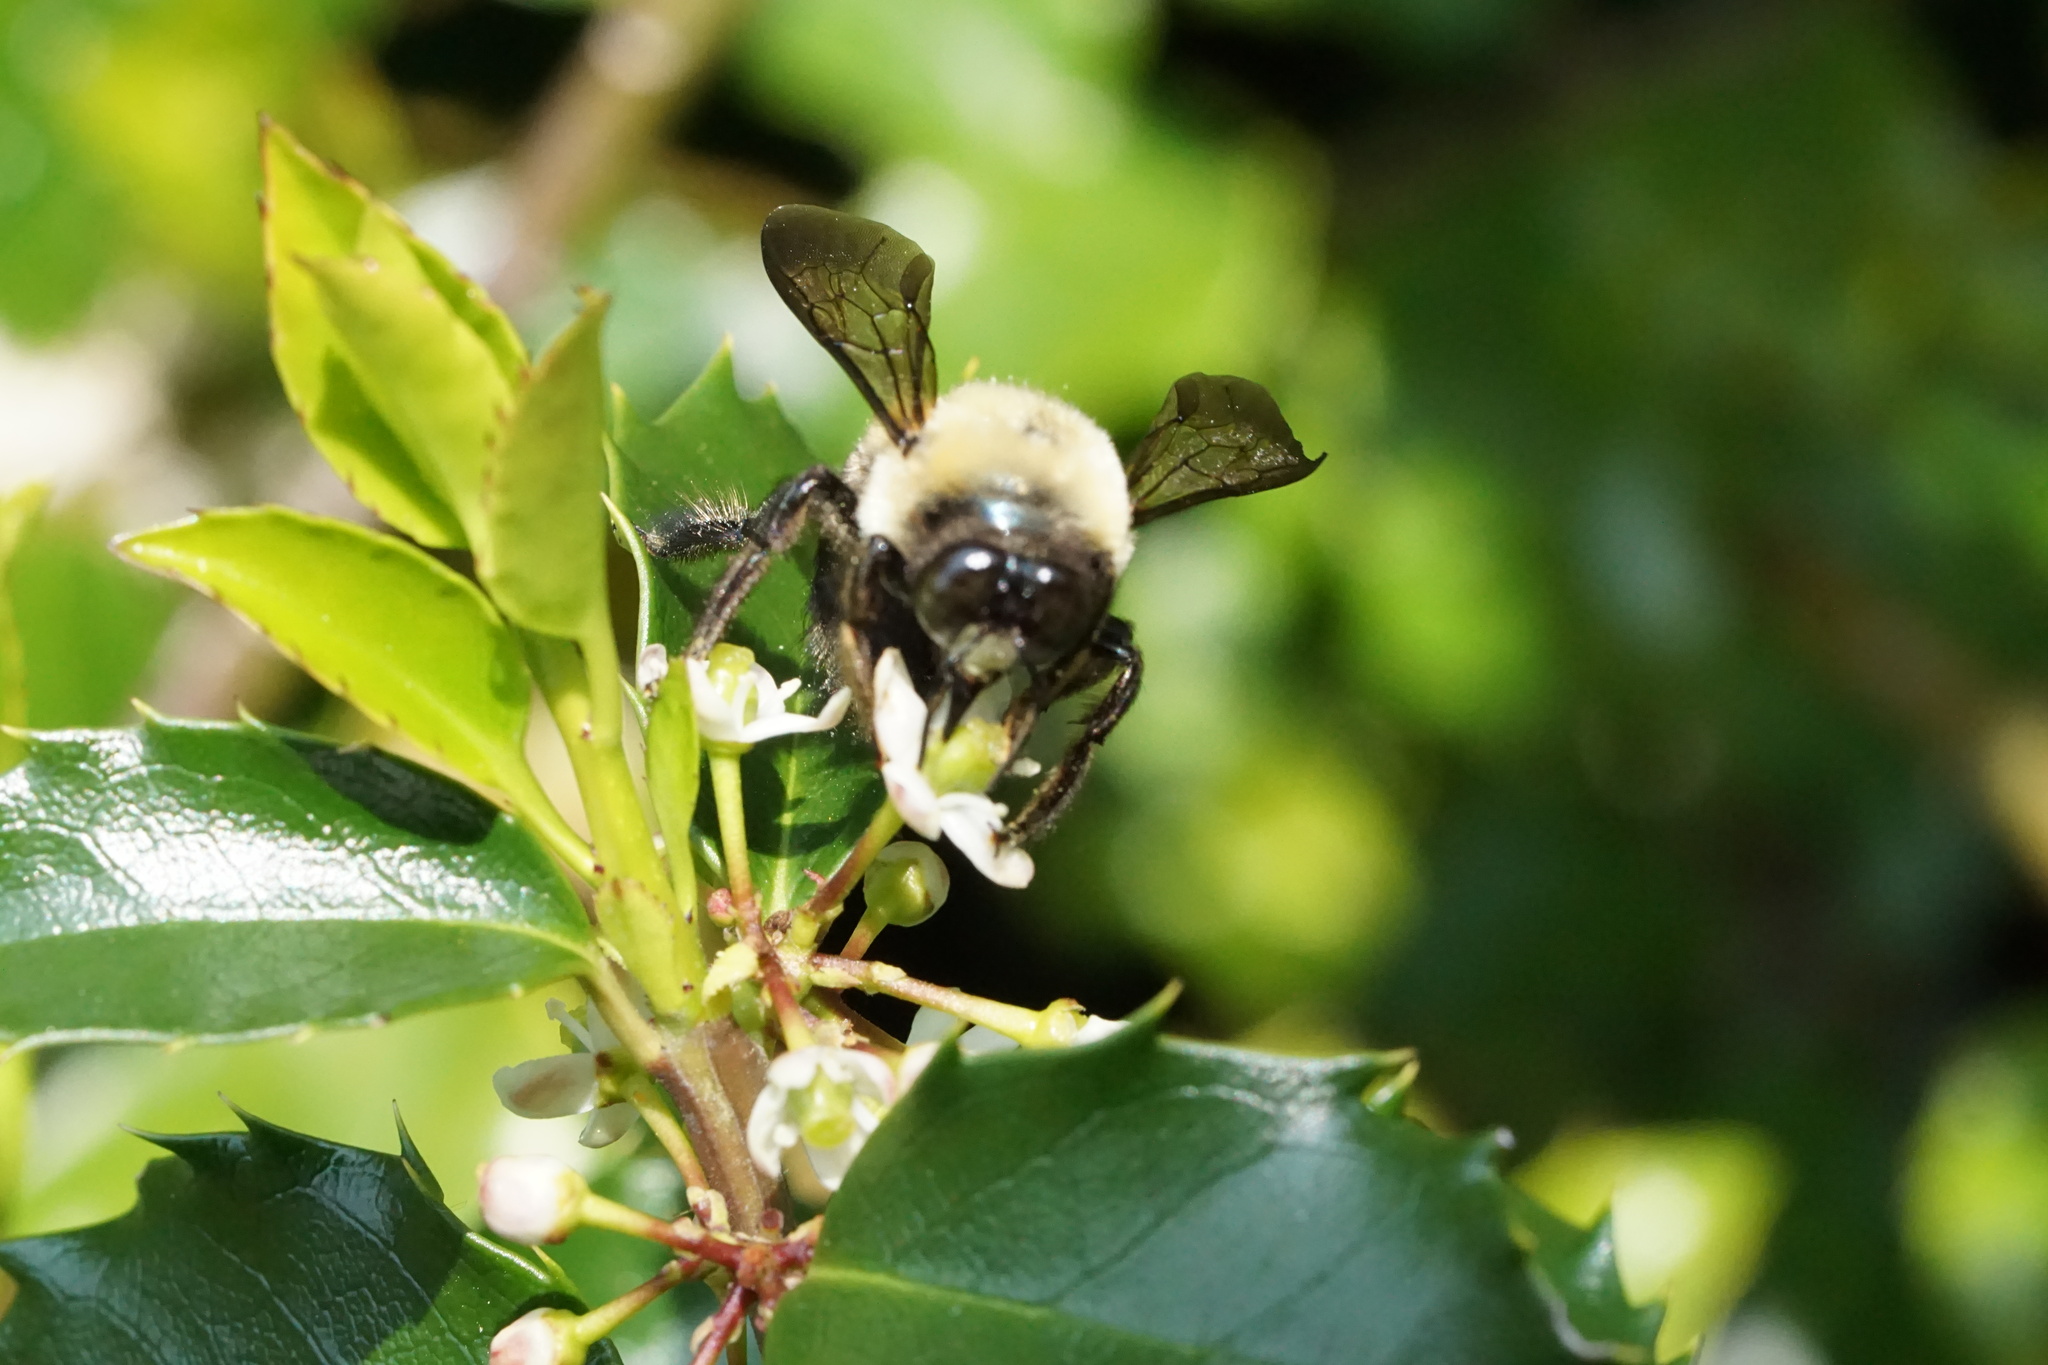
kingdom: Animalia
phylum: Arthropoda
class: Insecta
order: Hymenoptera
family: Apidae
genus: Xylocopa
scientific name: Xylocopa virginica
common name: Carpenter bee
